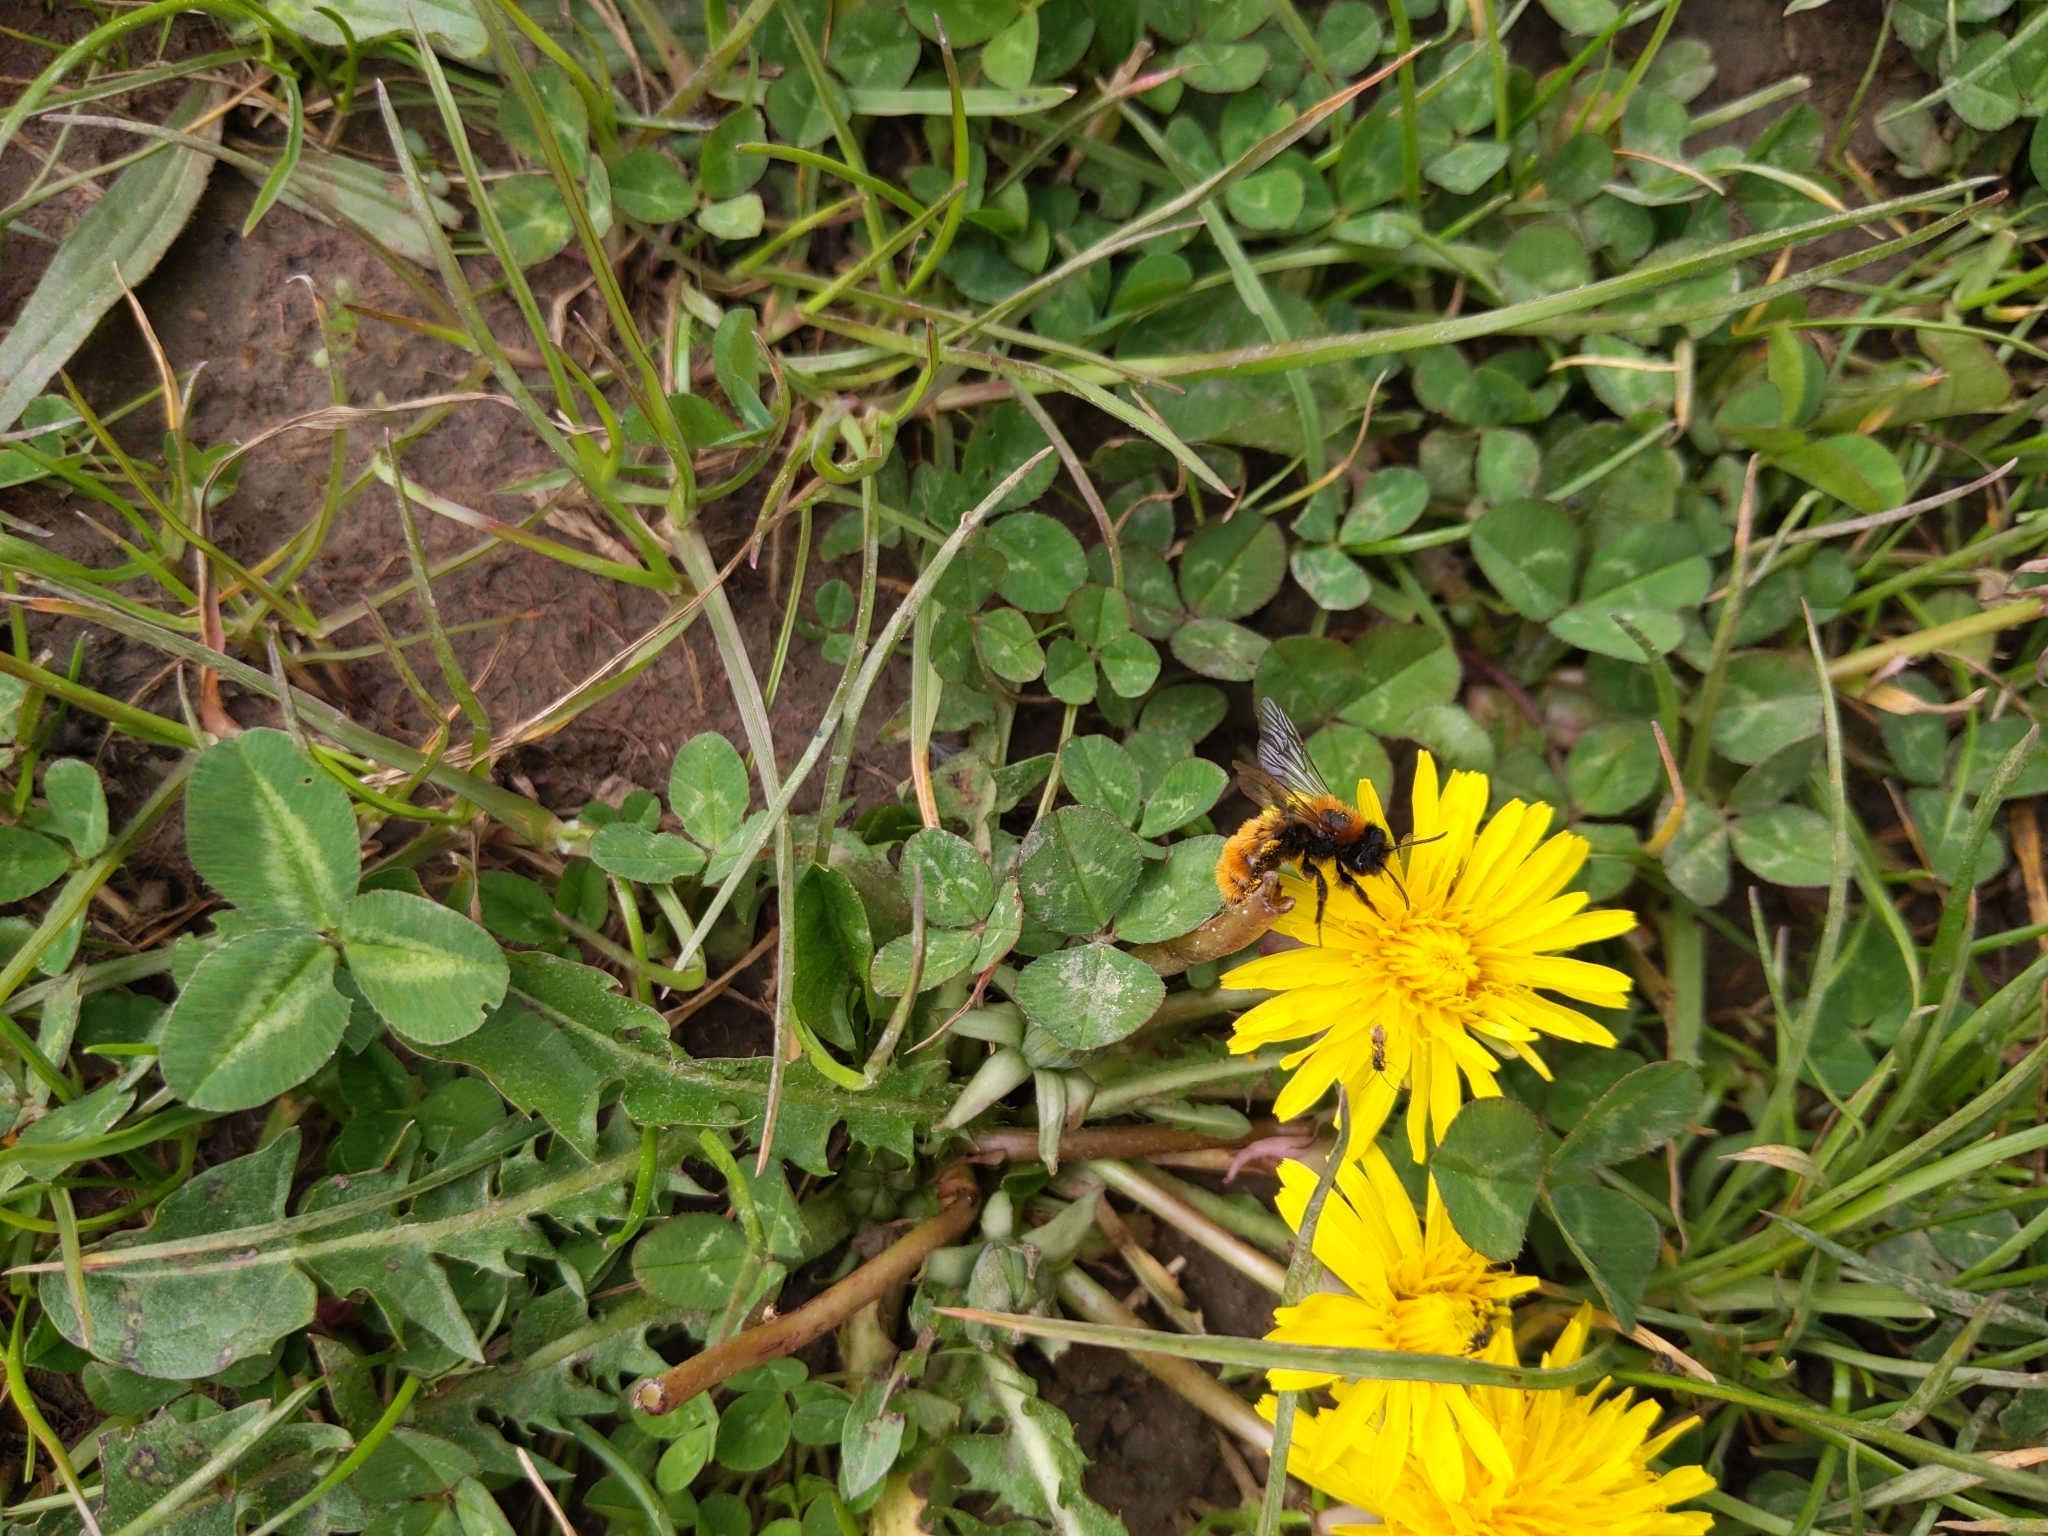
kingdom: Animalia
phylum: Arthropoda
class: Insecta
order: Hymenoptera
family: Andrenidae
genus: Andrena
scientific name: Andrena fulva
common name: Tawny mining bee
